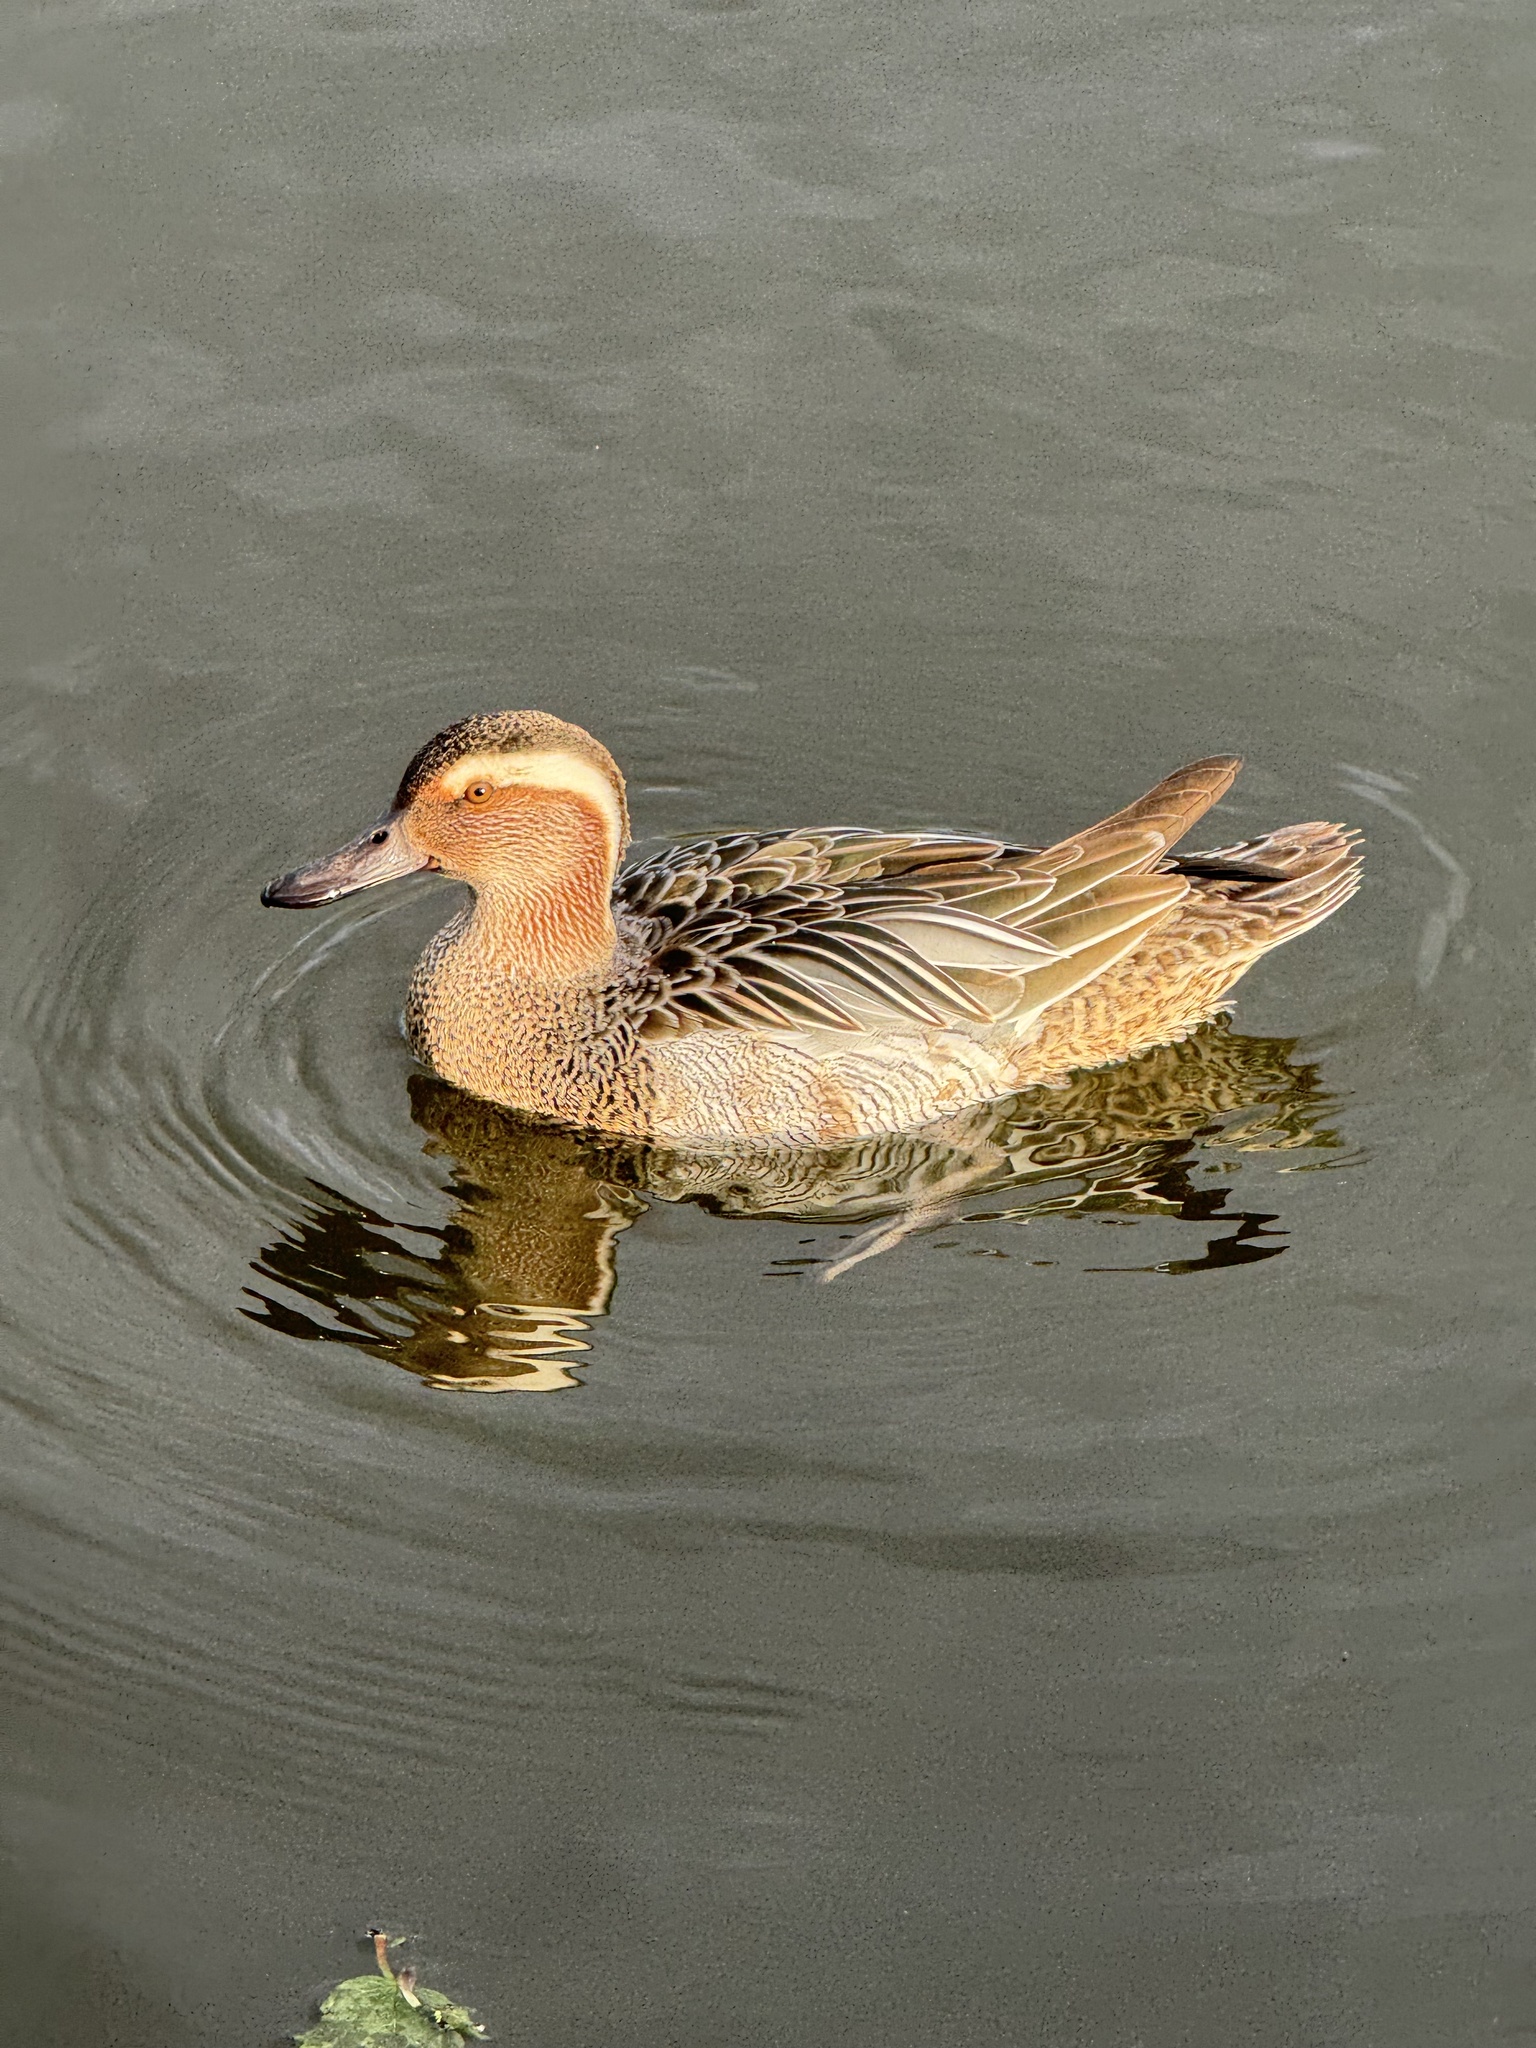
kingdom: Animalia
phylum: Chordata
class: Aves
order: Anseriformes
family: Anatidae
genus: Spatula
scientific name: Spatula querquedula
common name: Garganey
